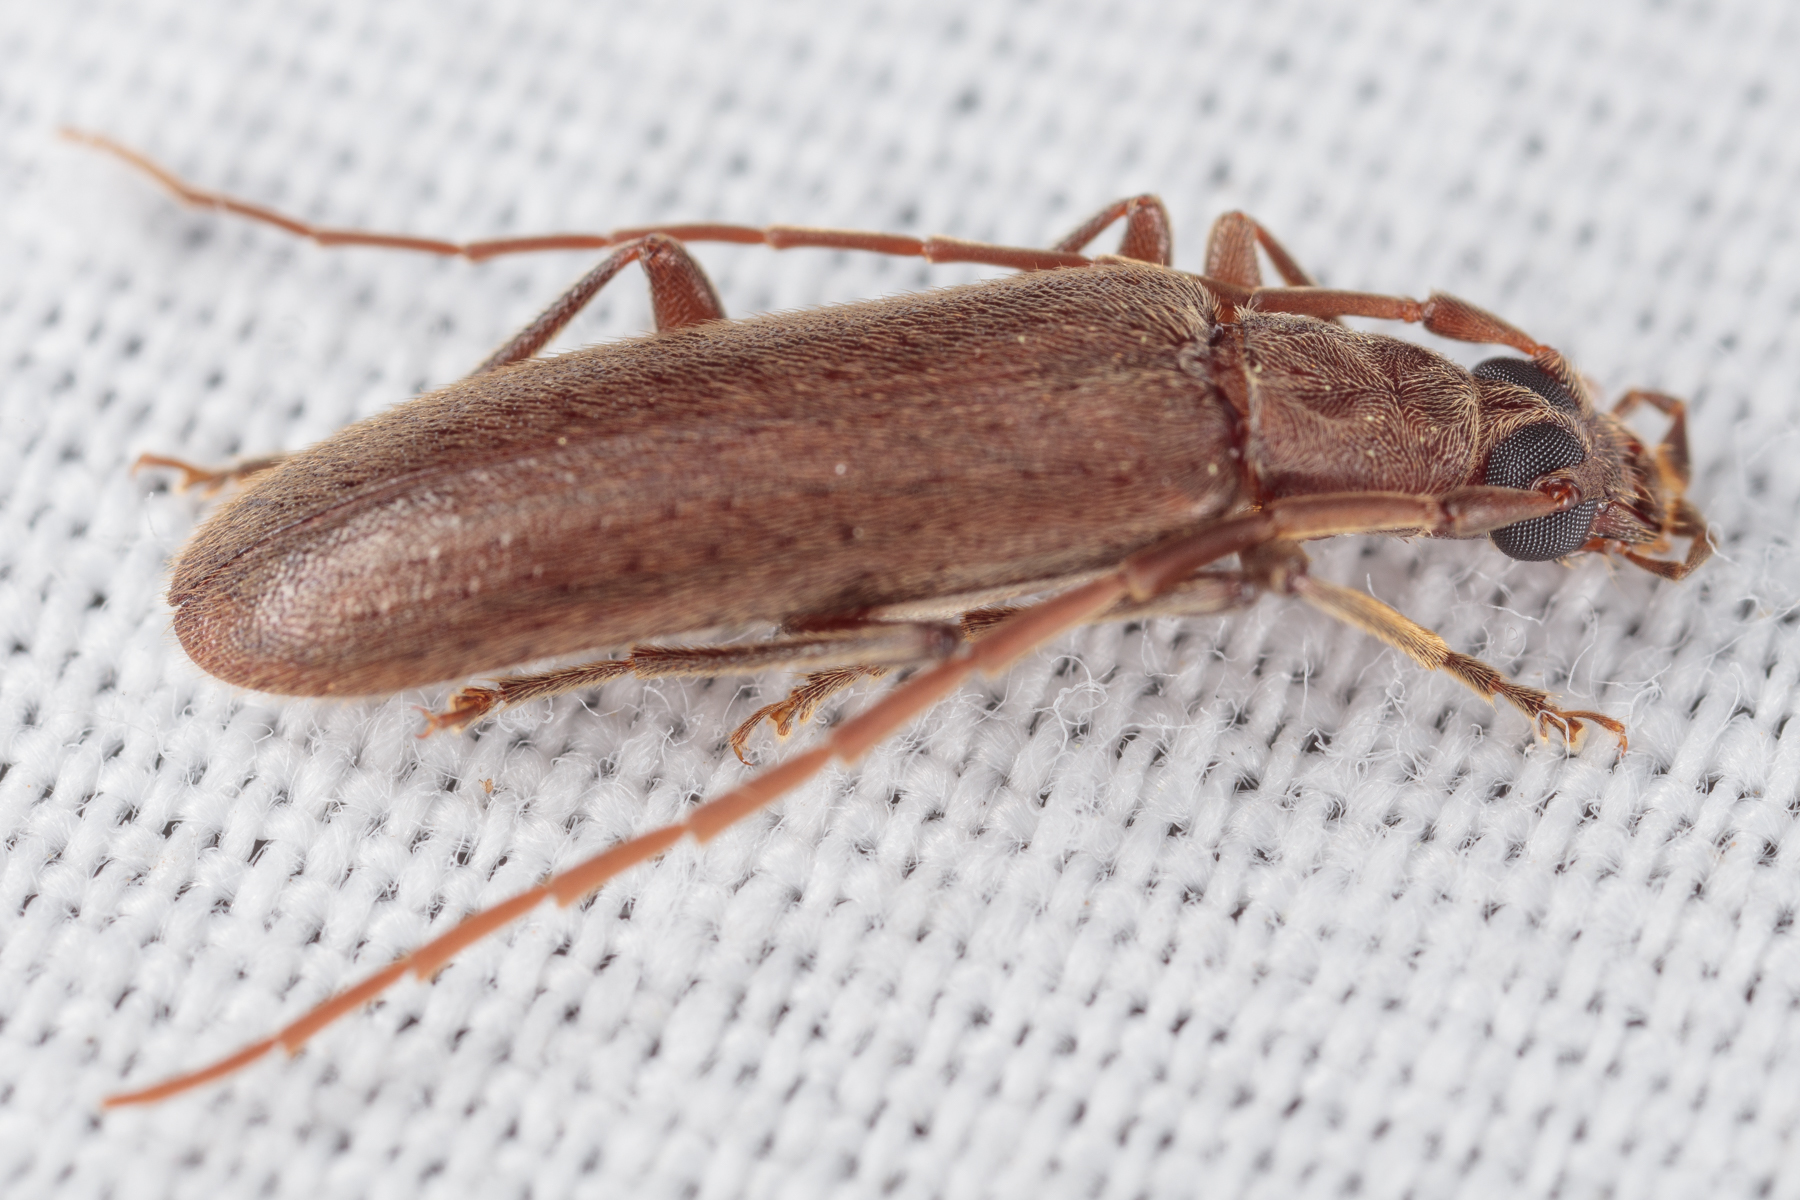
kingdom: Animalia
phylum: Arthropoda
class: Insecta
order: Coleoptera
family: Oedemeridae
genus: Sparedrus
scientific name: Sparedrus aspersus
